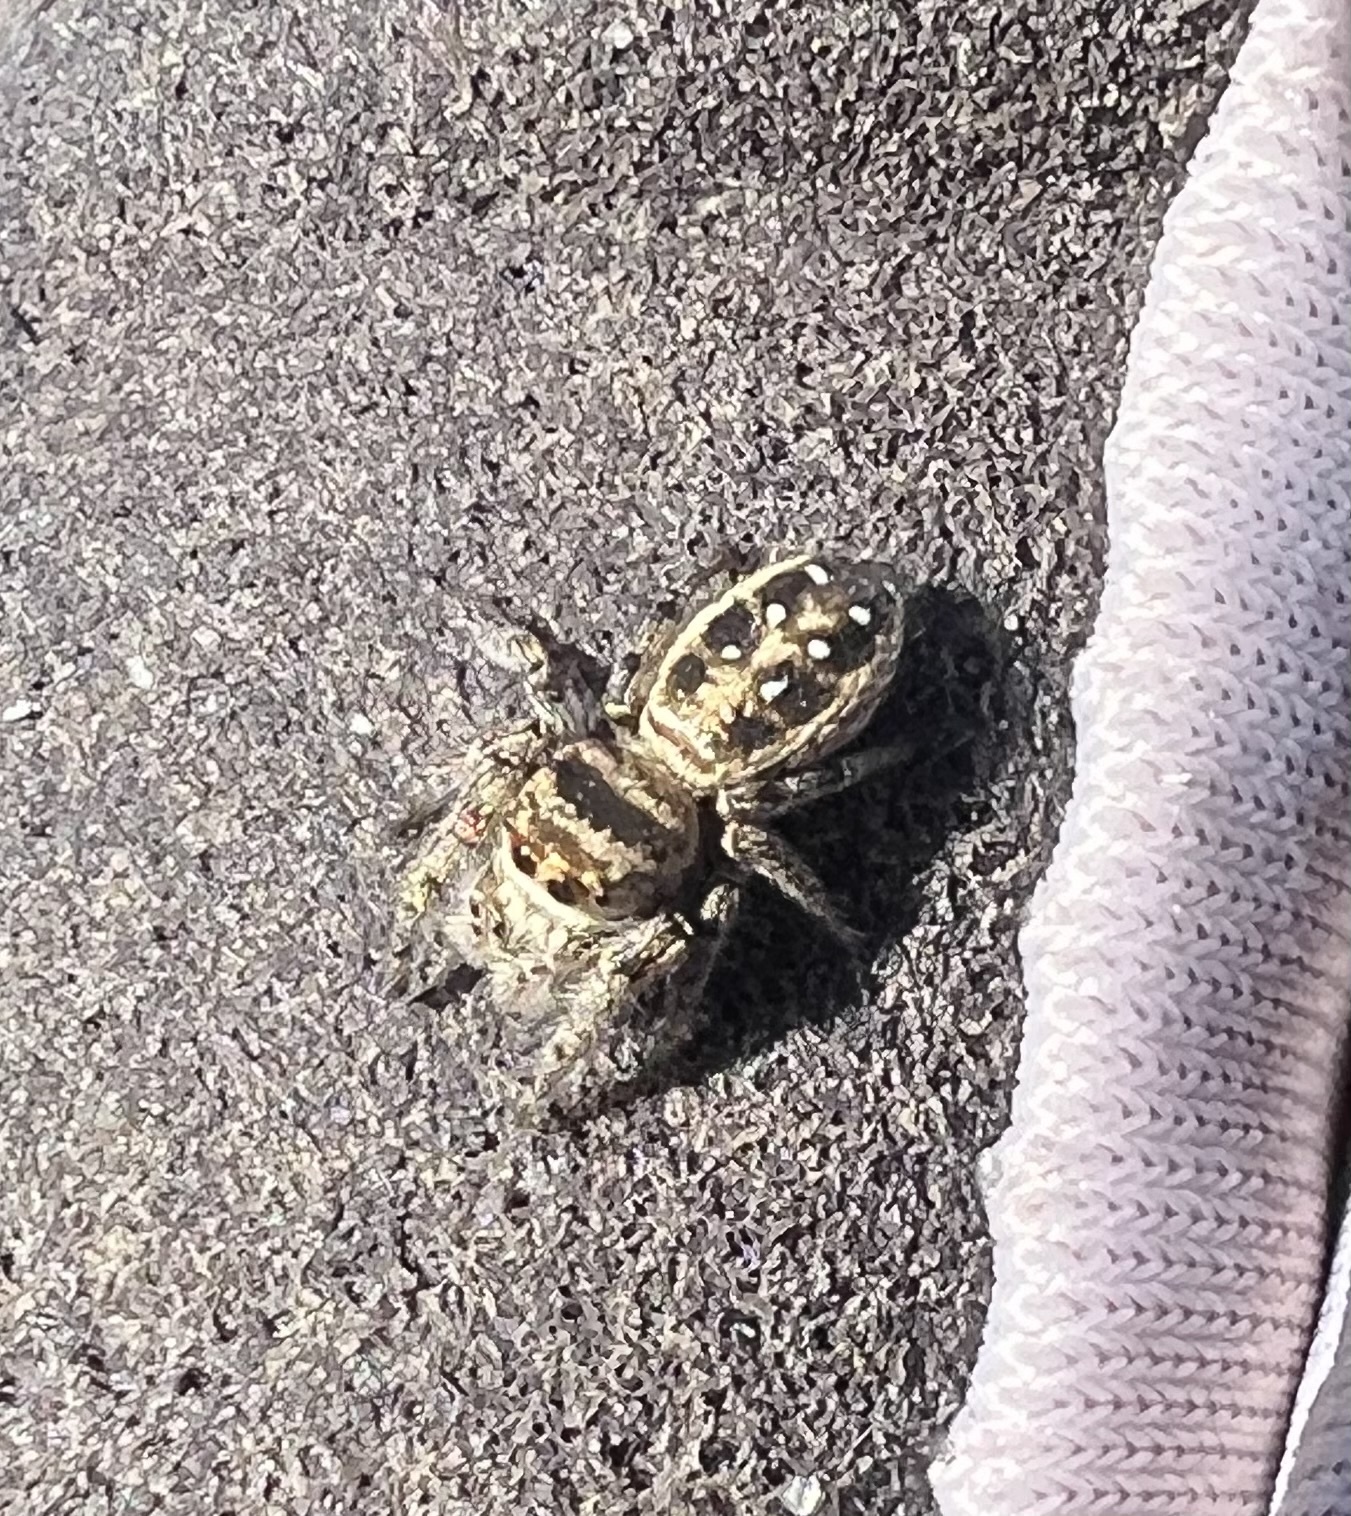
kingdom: Animalia
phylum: Arthropoda
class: Arachnida
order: Araneae
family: Salticidae
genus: Eris
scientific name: Eris flava
